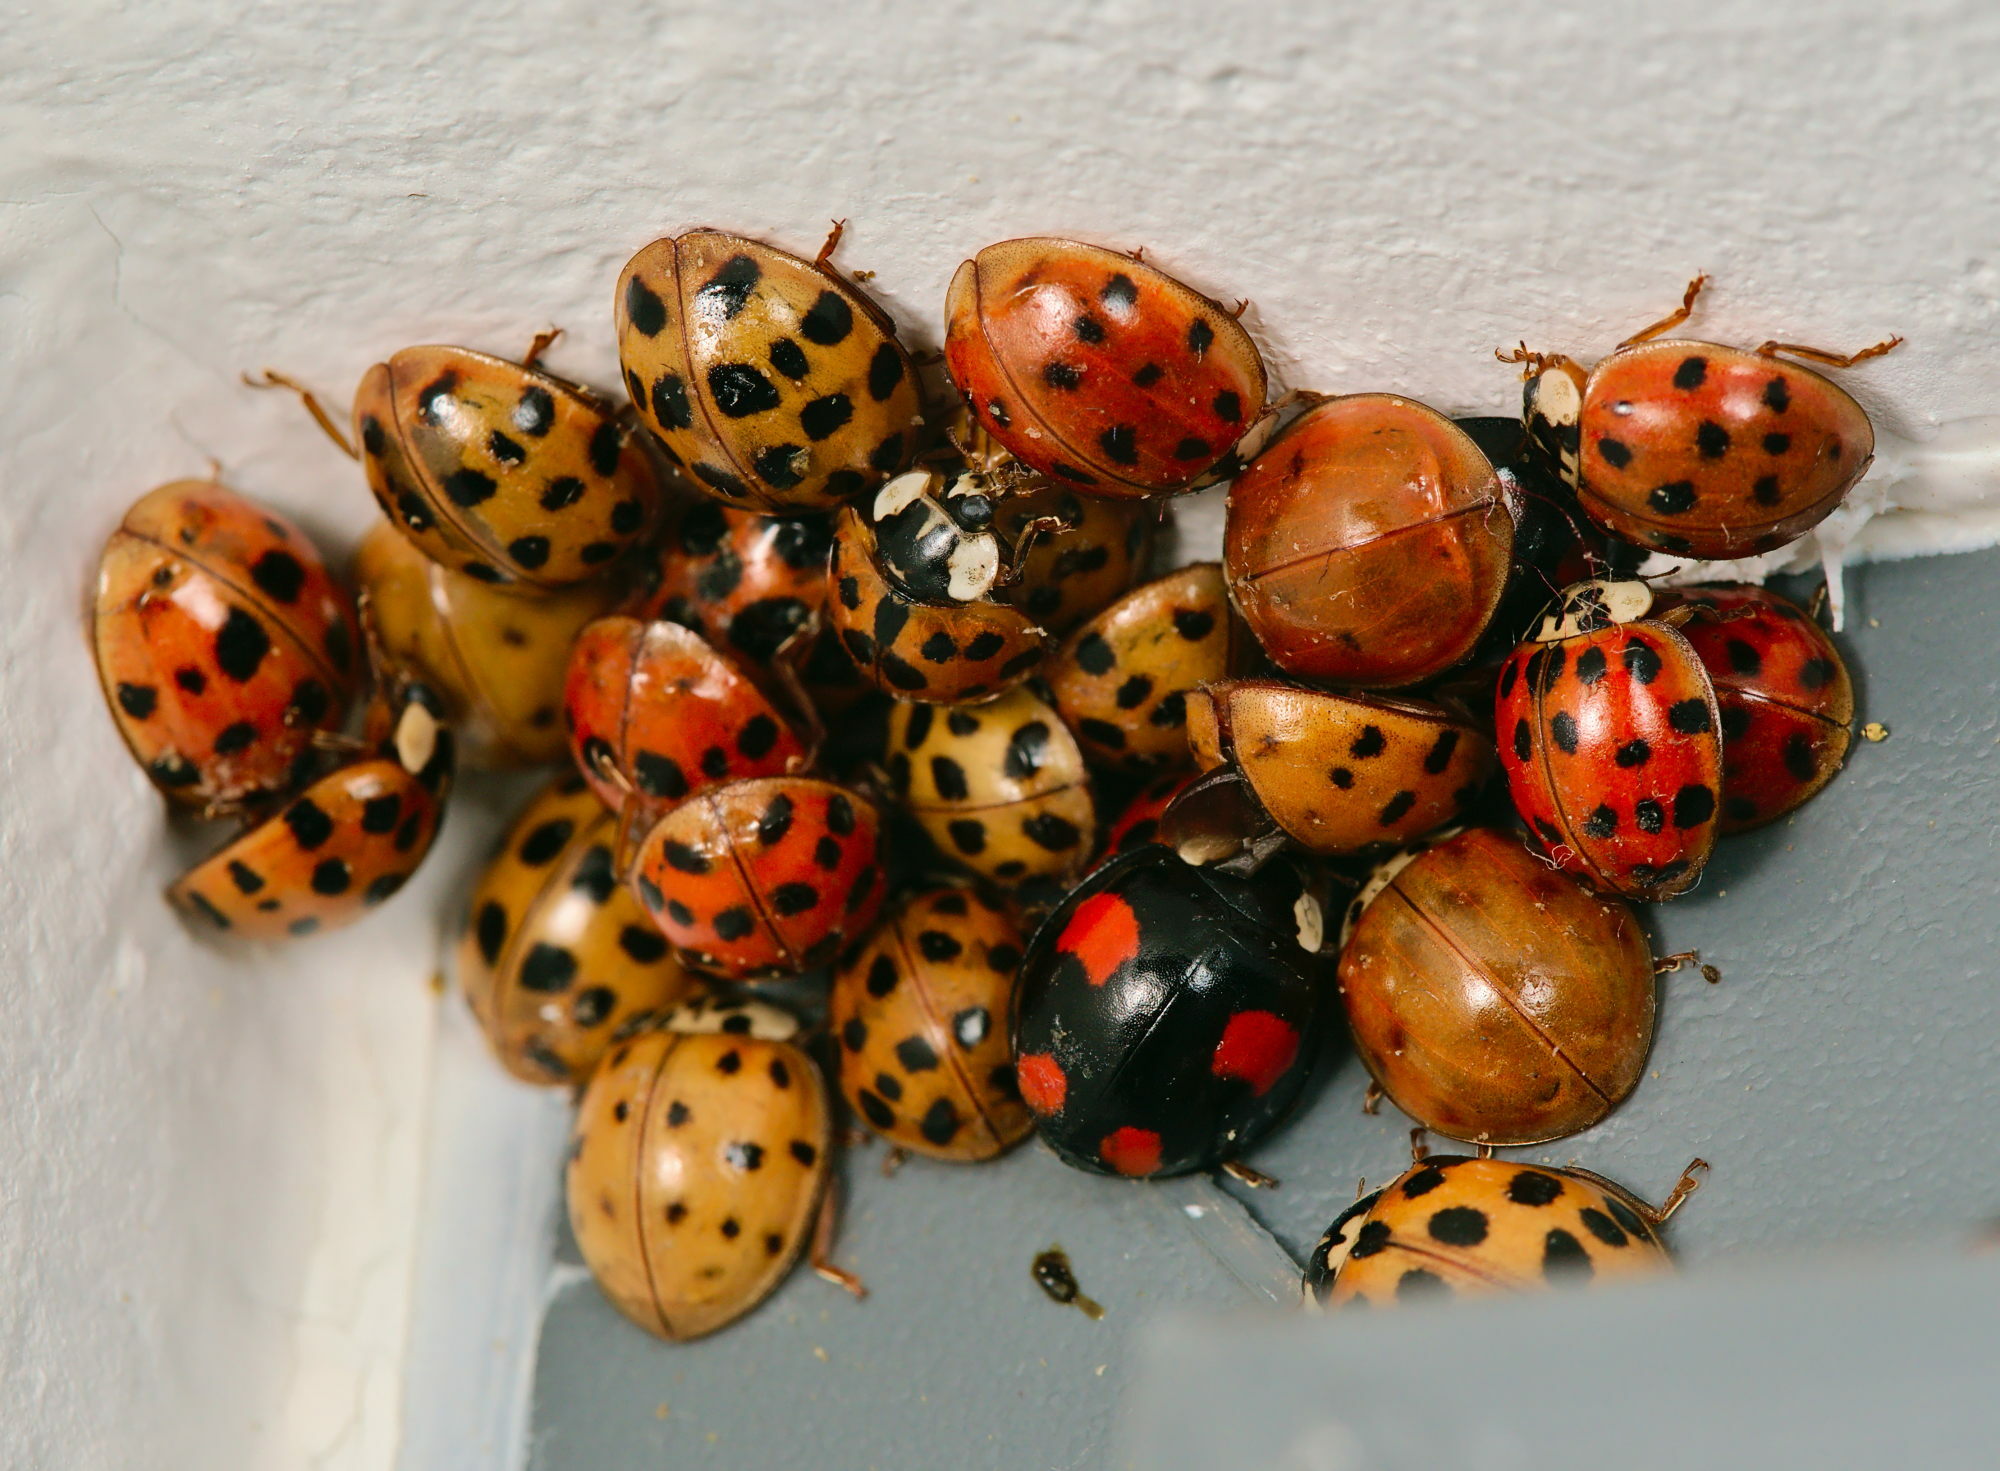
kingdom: Animalia
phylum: Arthropoda
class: Insecta
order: Coleoptera
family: Coccinellidae
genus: Harmonia
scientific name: Harmonia axyridis
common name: Harlequin ladybird
